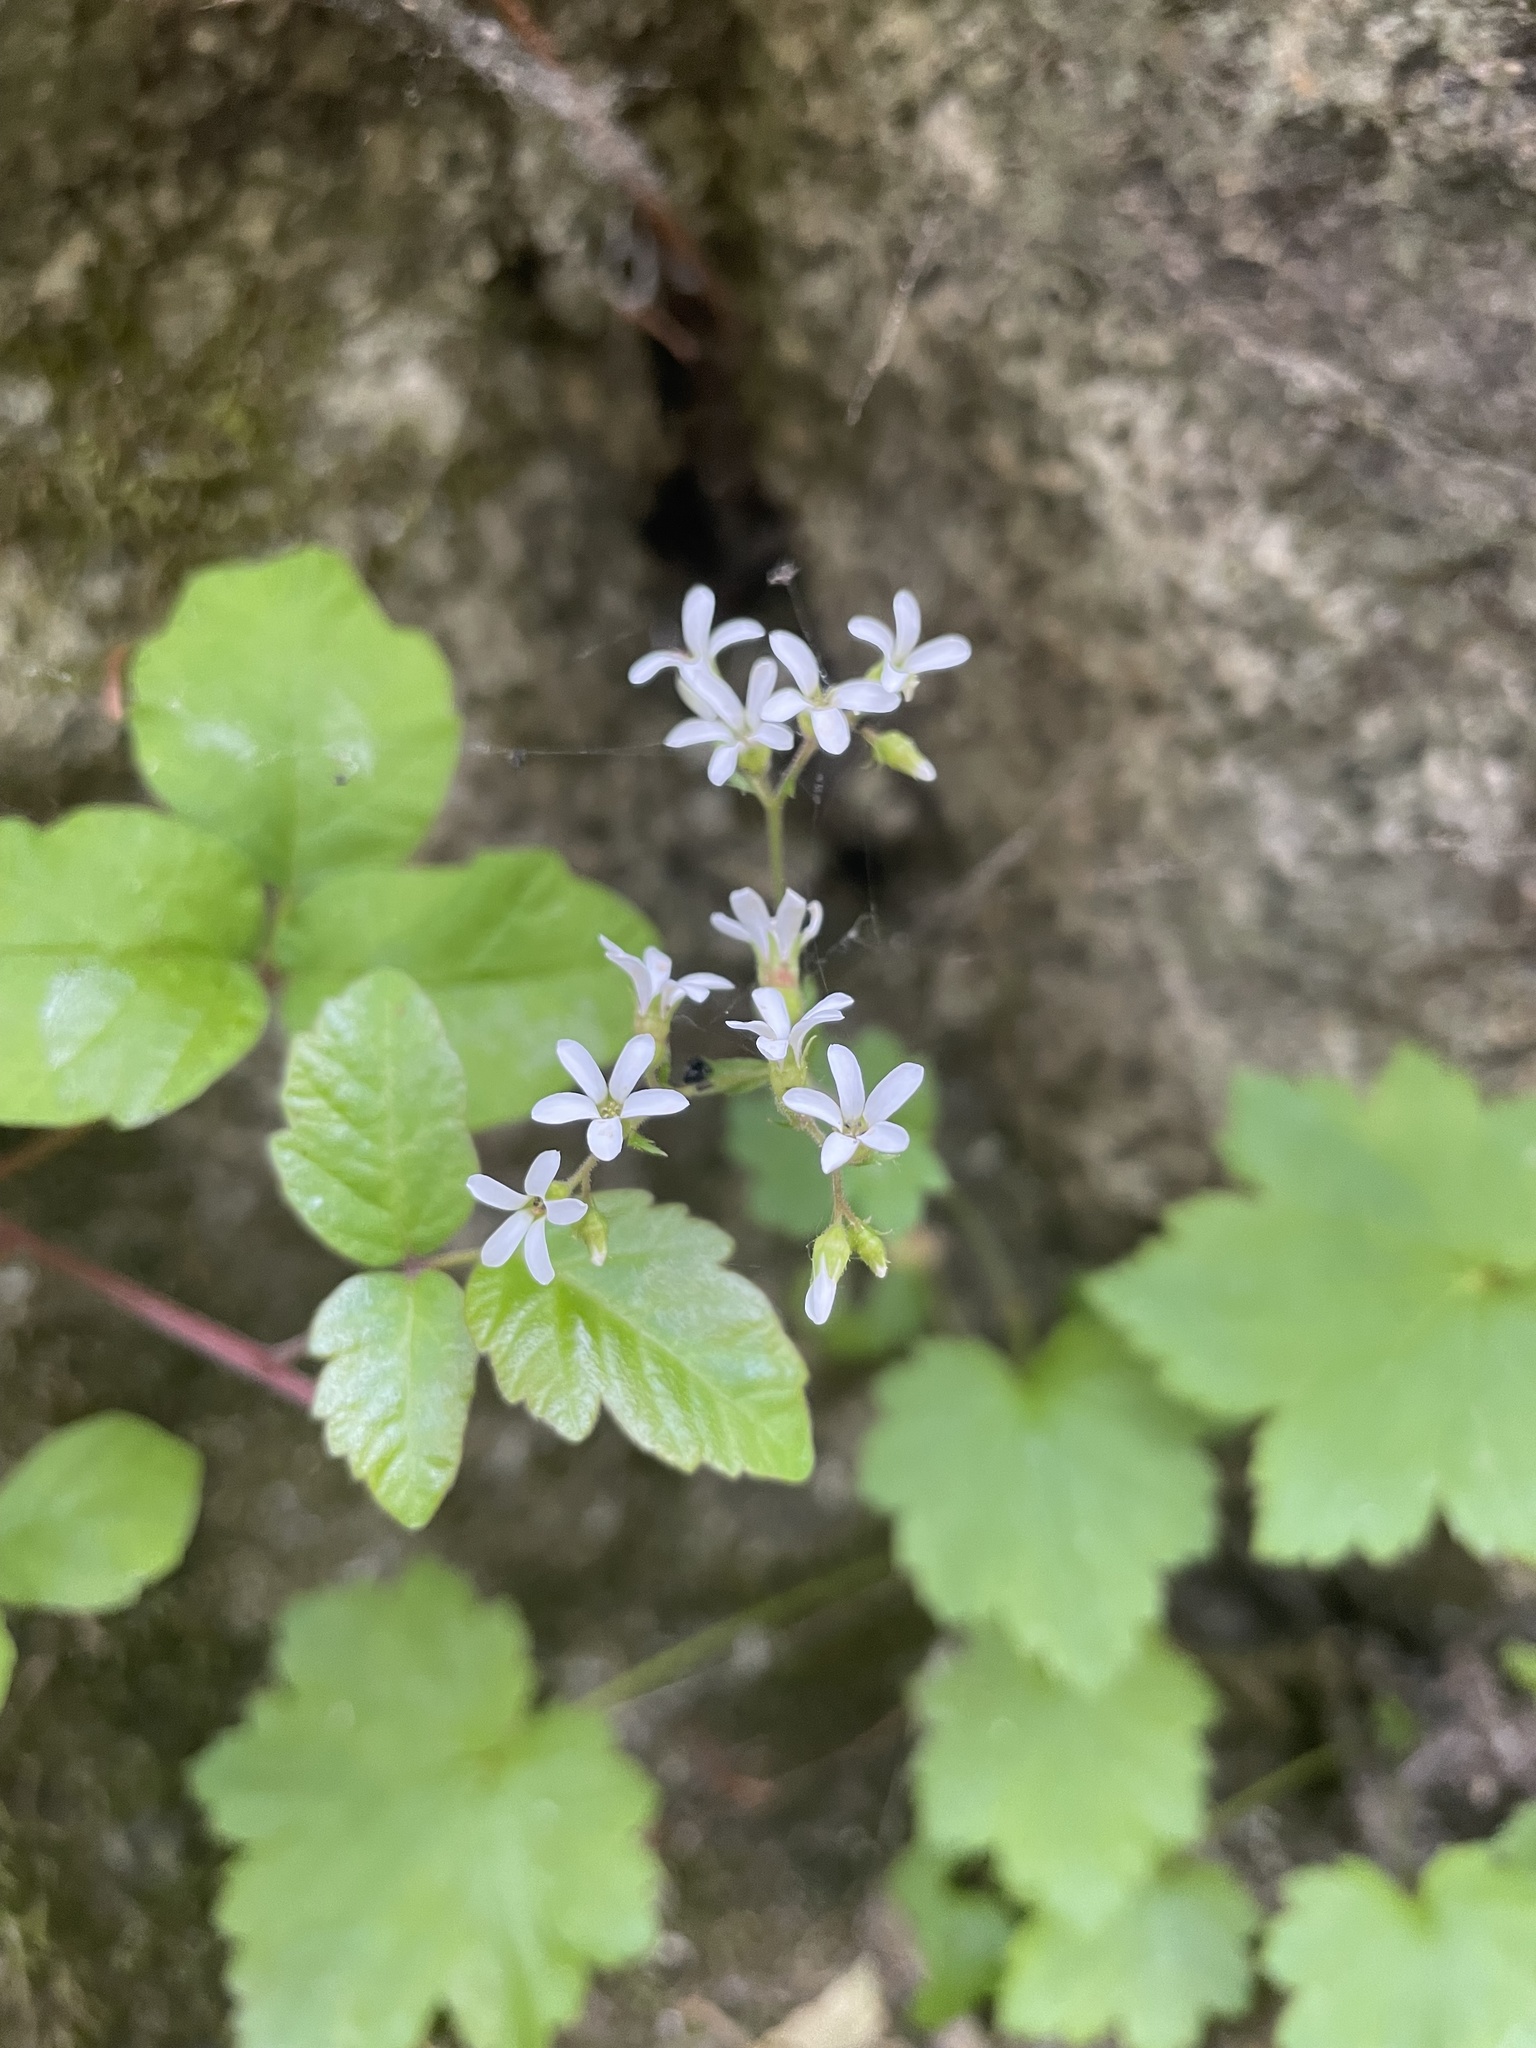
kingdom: Plantae
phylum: Tracheophyta
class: Magnoliopsida
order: Saxifragales
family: Saxifragaceae
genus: Boykinia
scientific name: Boykinia occidentalis
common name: Coast boykinia
